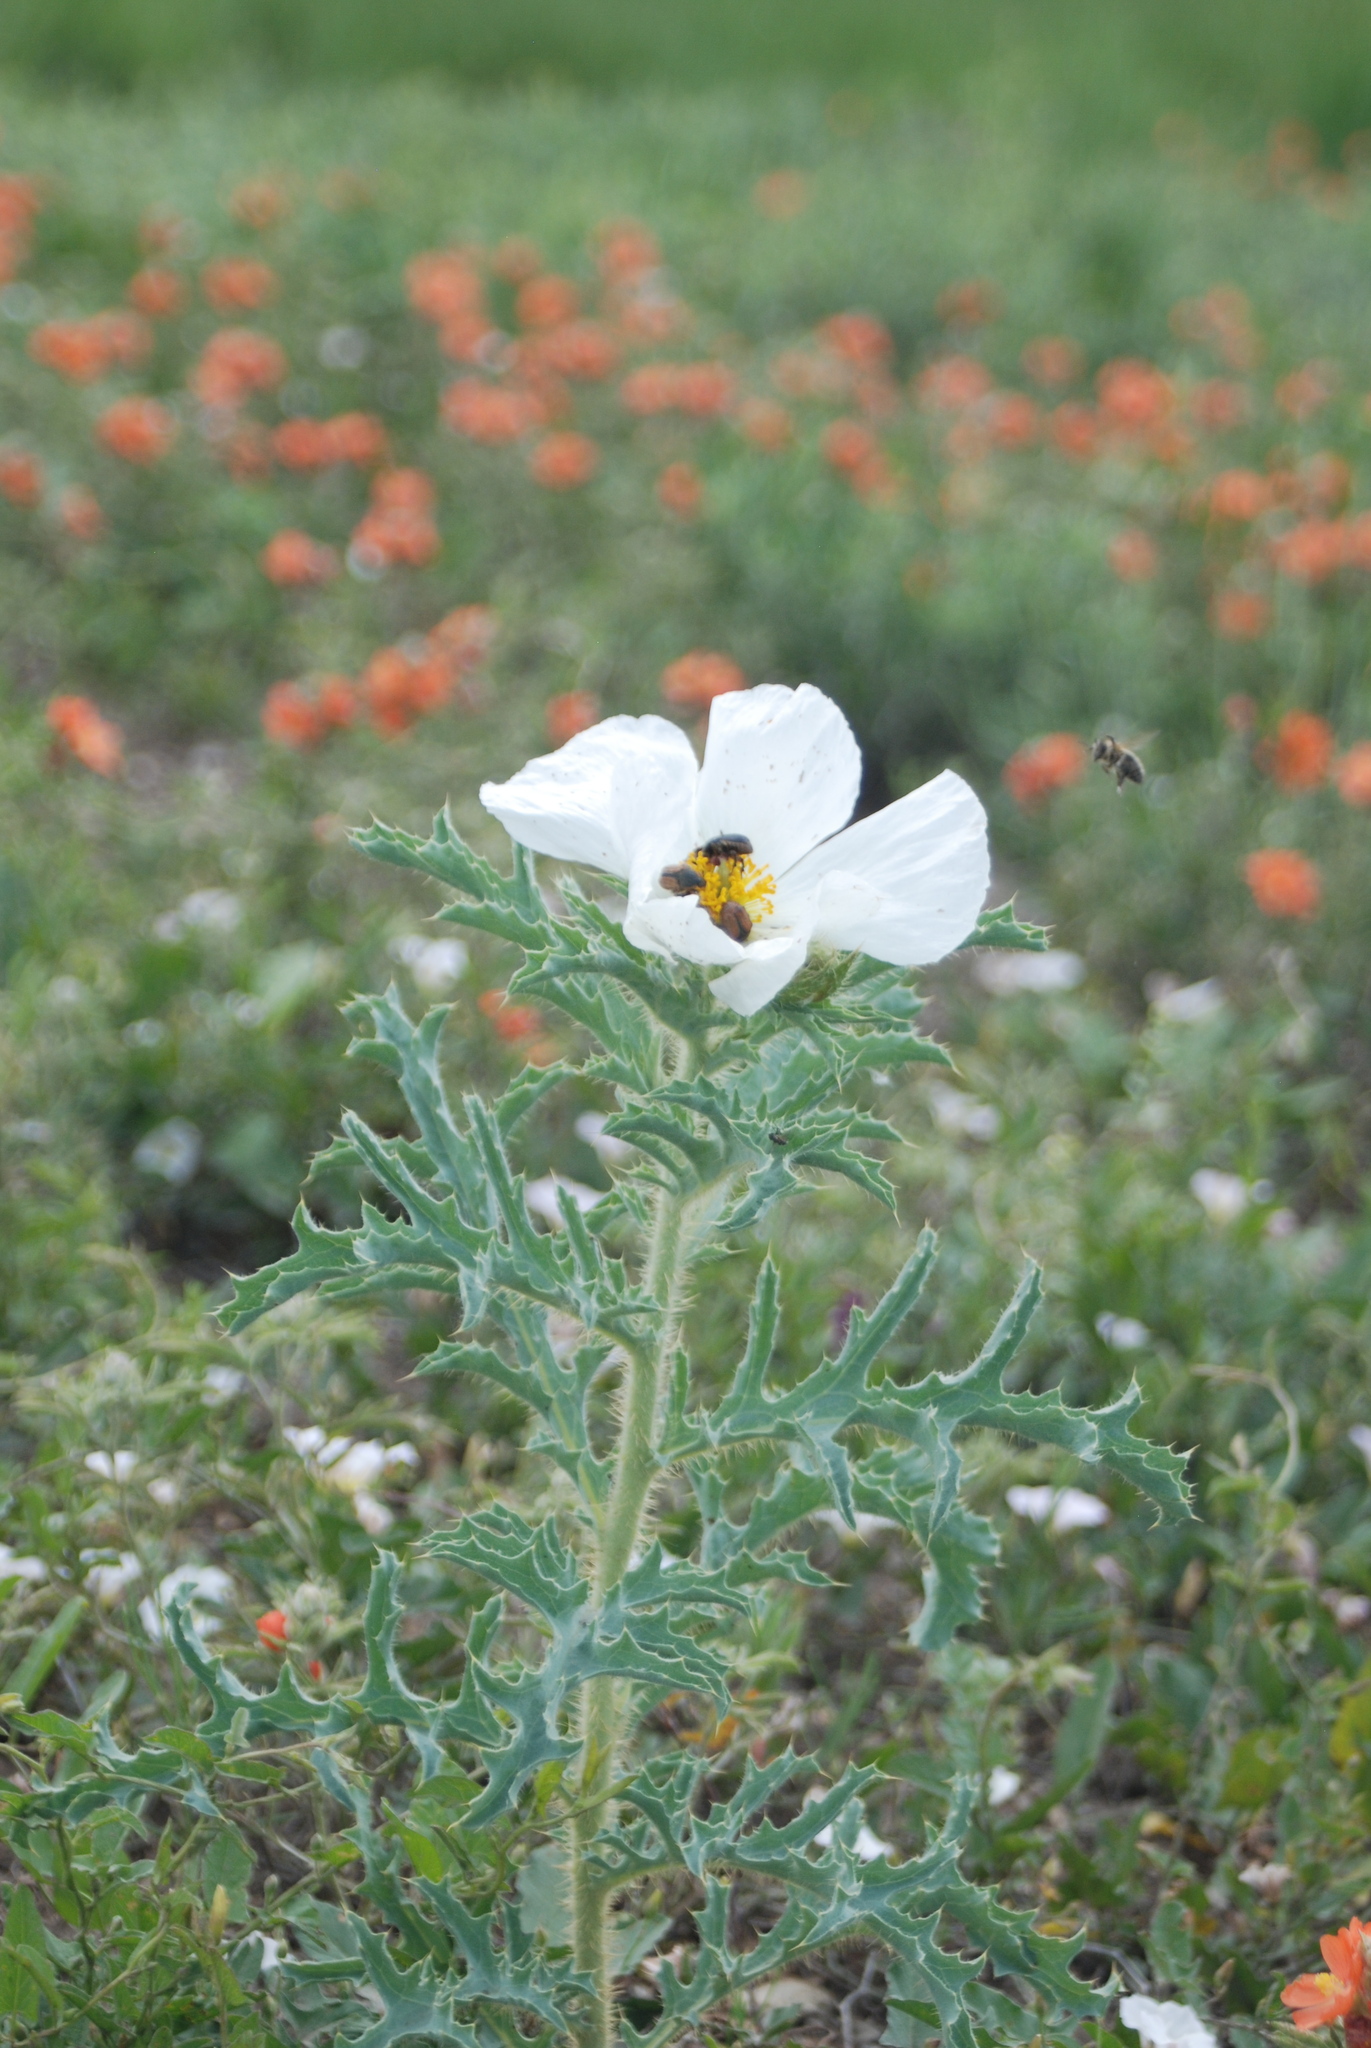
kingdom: Animalia
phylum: Arthropoda
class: Insecta
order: Hymenoptera
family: Apidae
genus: Apis
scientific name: Apis mellifera
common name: Honey bee
